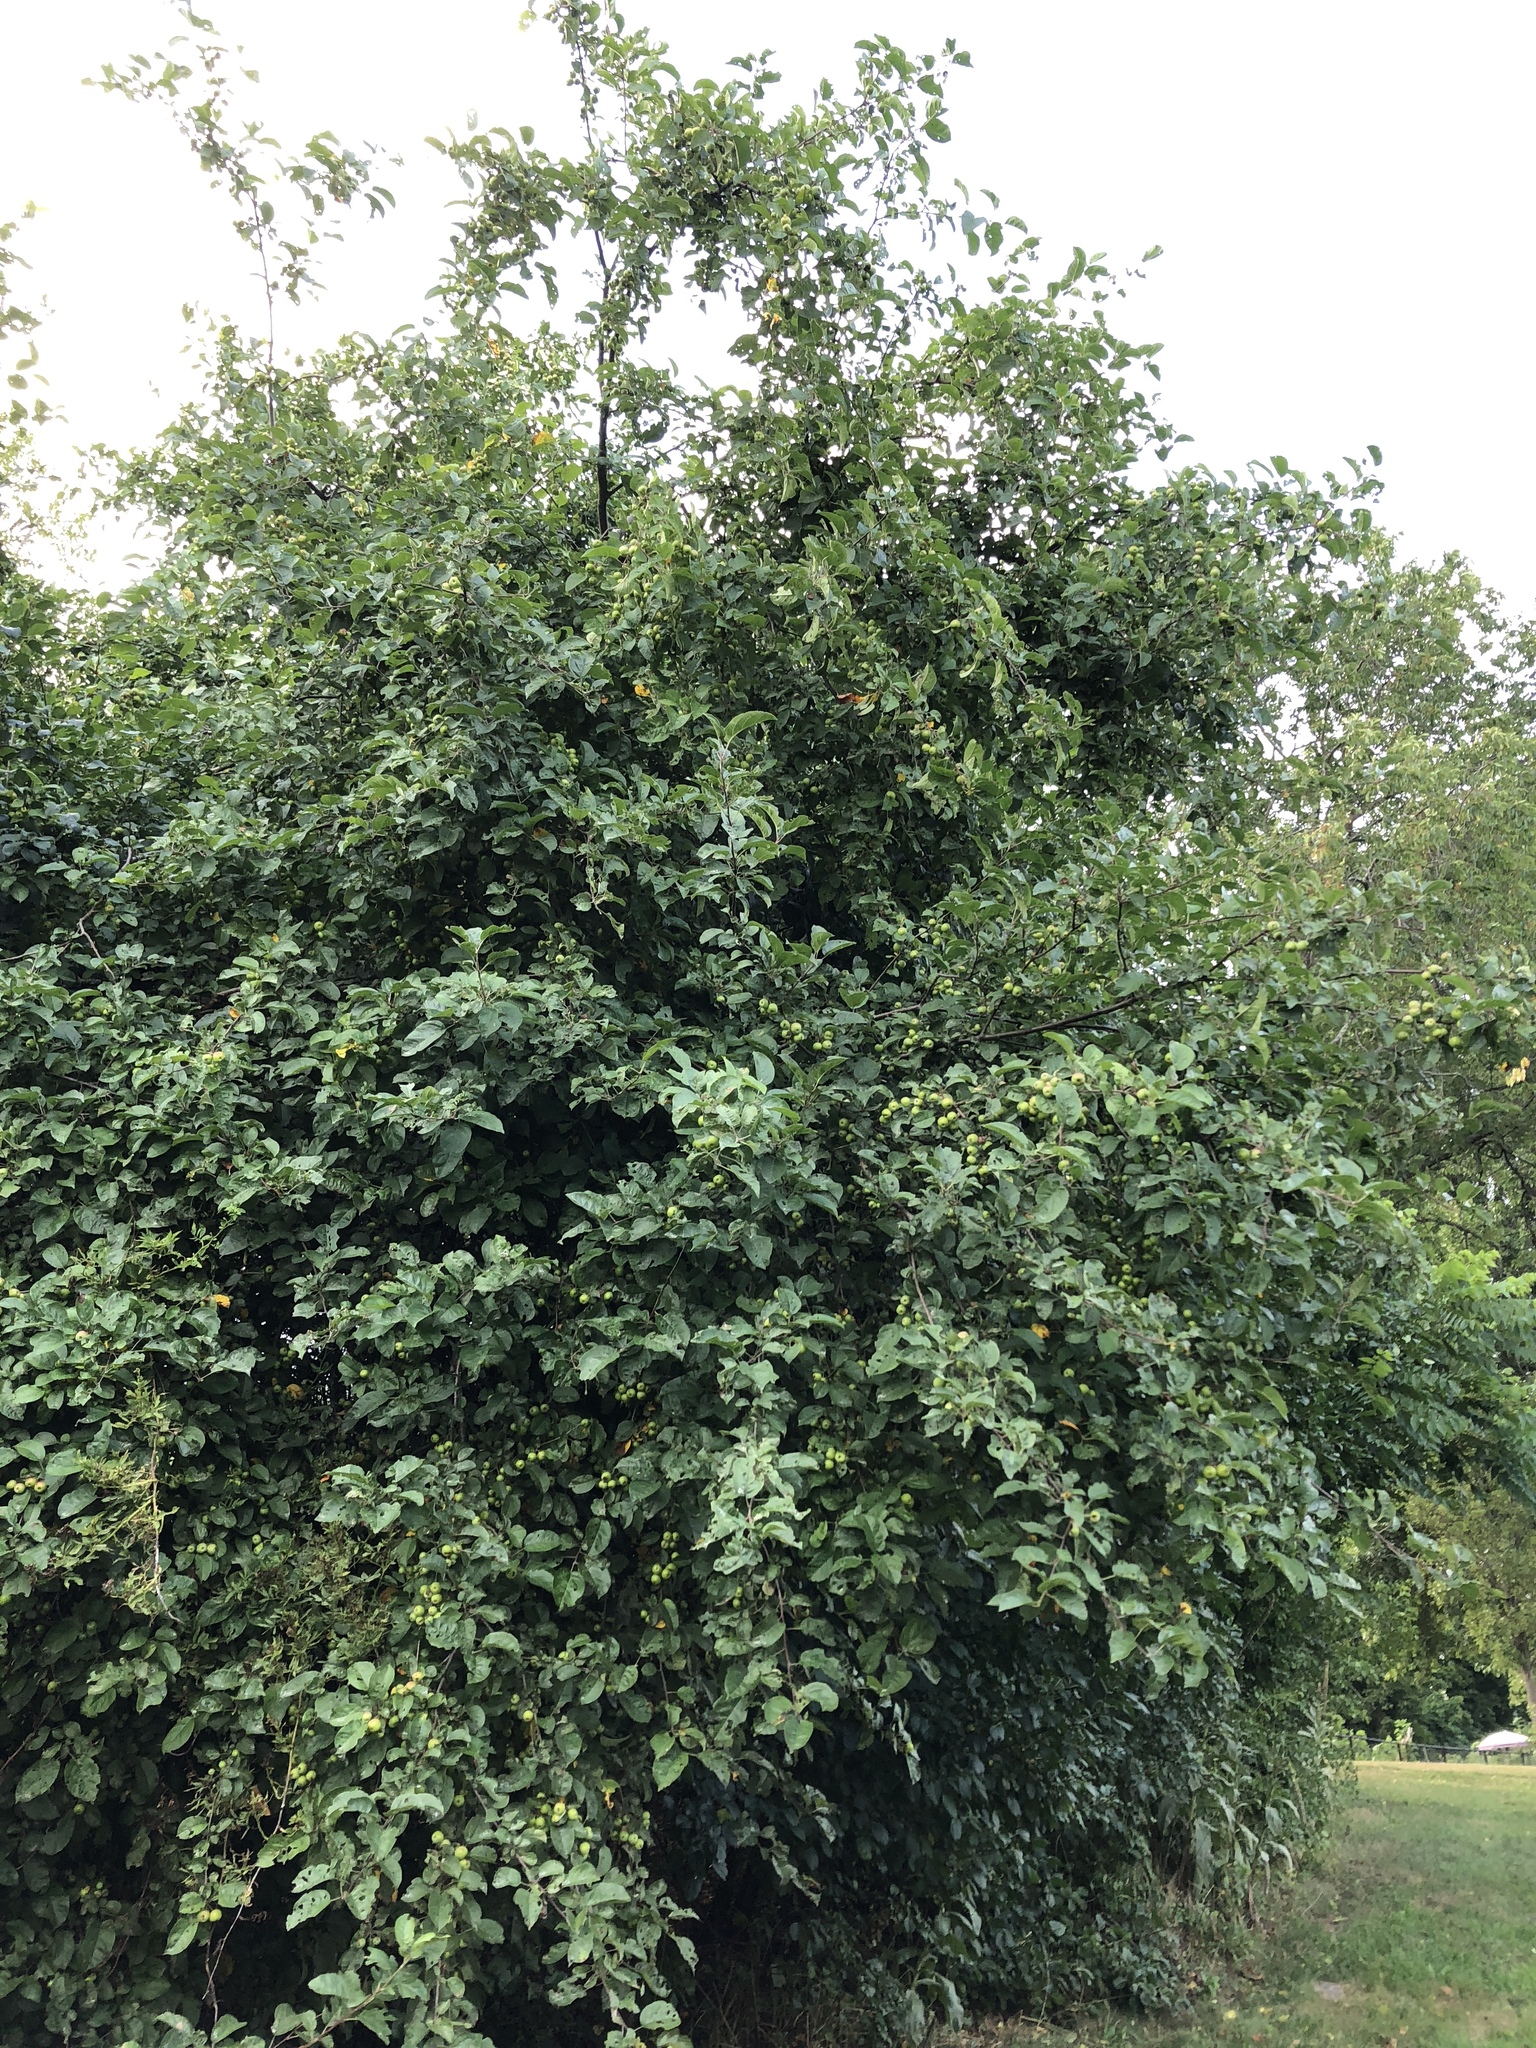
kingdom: Plantae
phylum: Tracheophyta
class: Magnoliopsida
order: Rosales
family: Rosaceae
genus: Malus
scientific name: Malus domestica
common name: Apple
